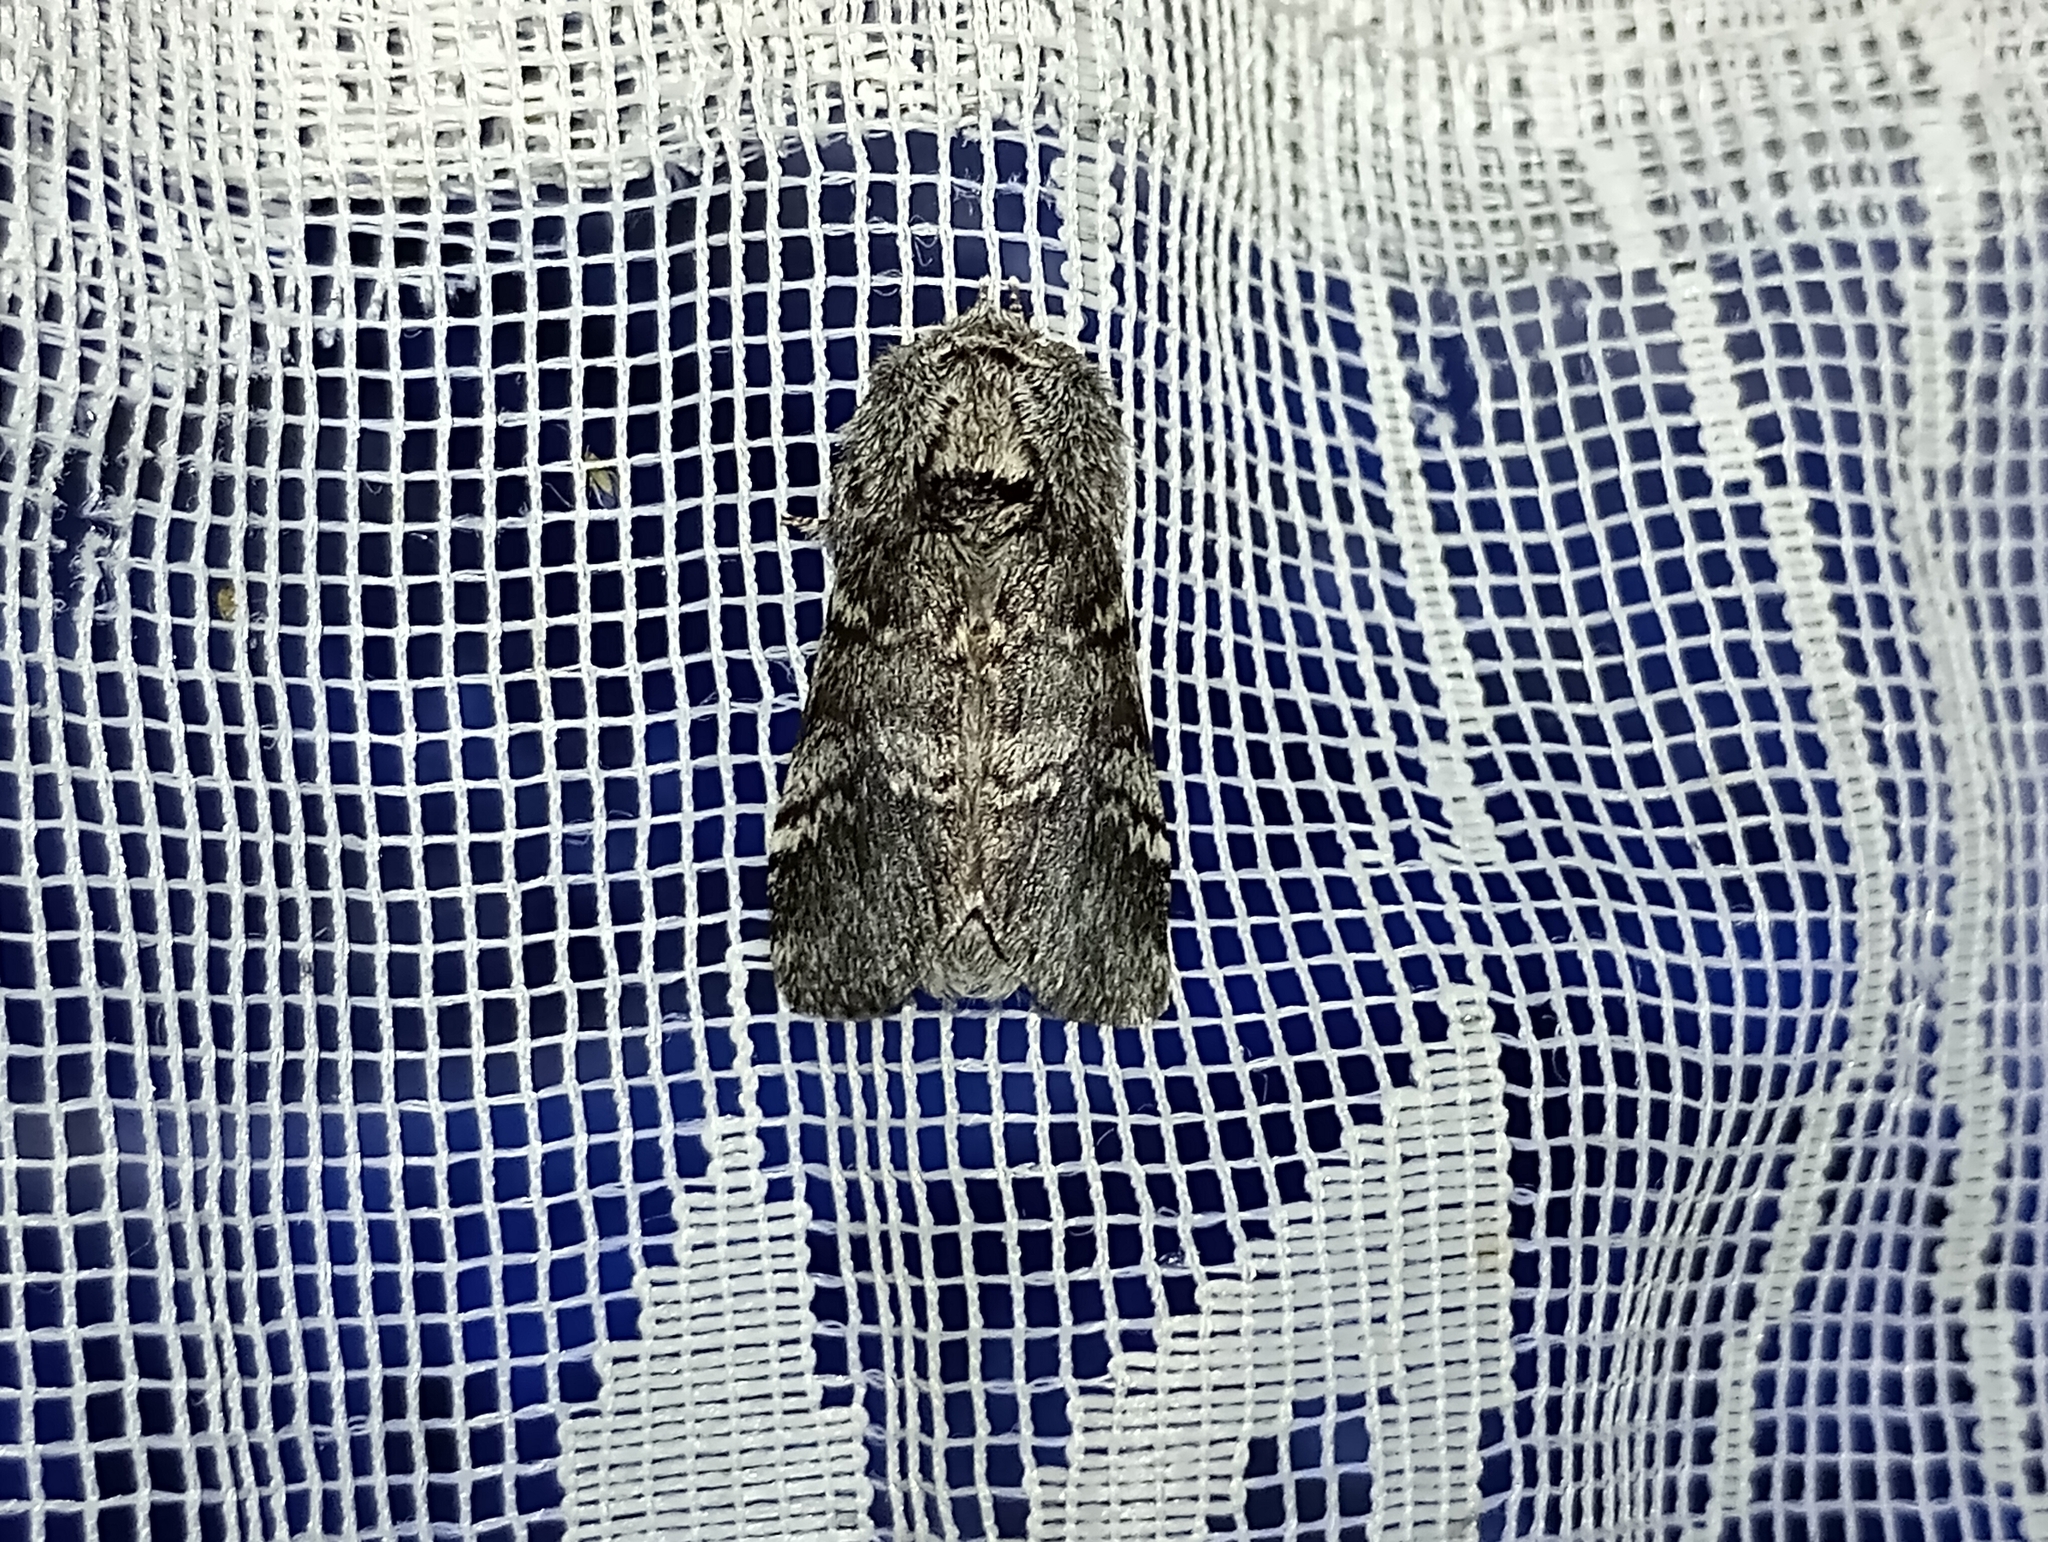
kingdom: Animalia
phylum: Arthropoda
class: Insecta
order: Lepidoptera
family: Notodontidae
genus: Drymonia
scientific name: Drymonia ruficornis
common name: Lunar marbled brown
